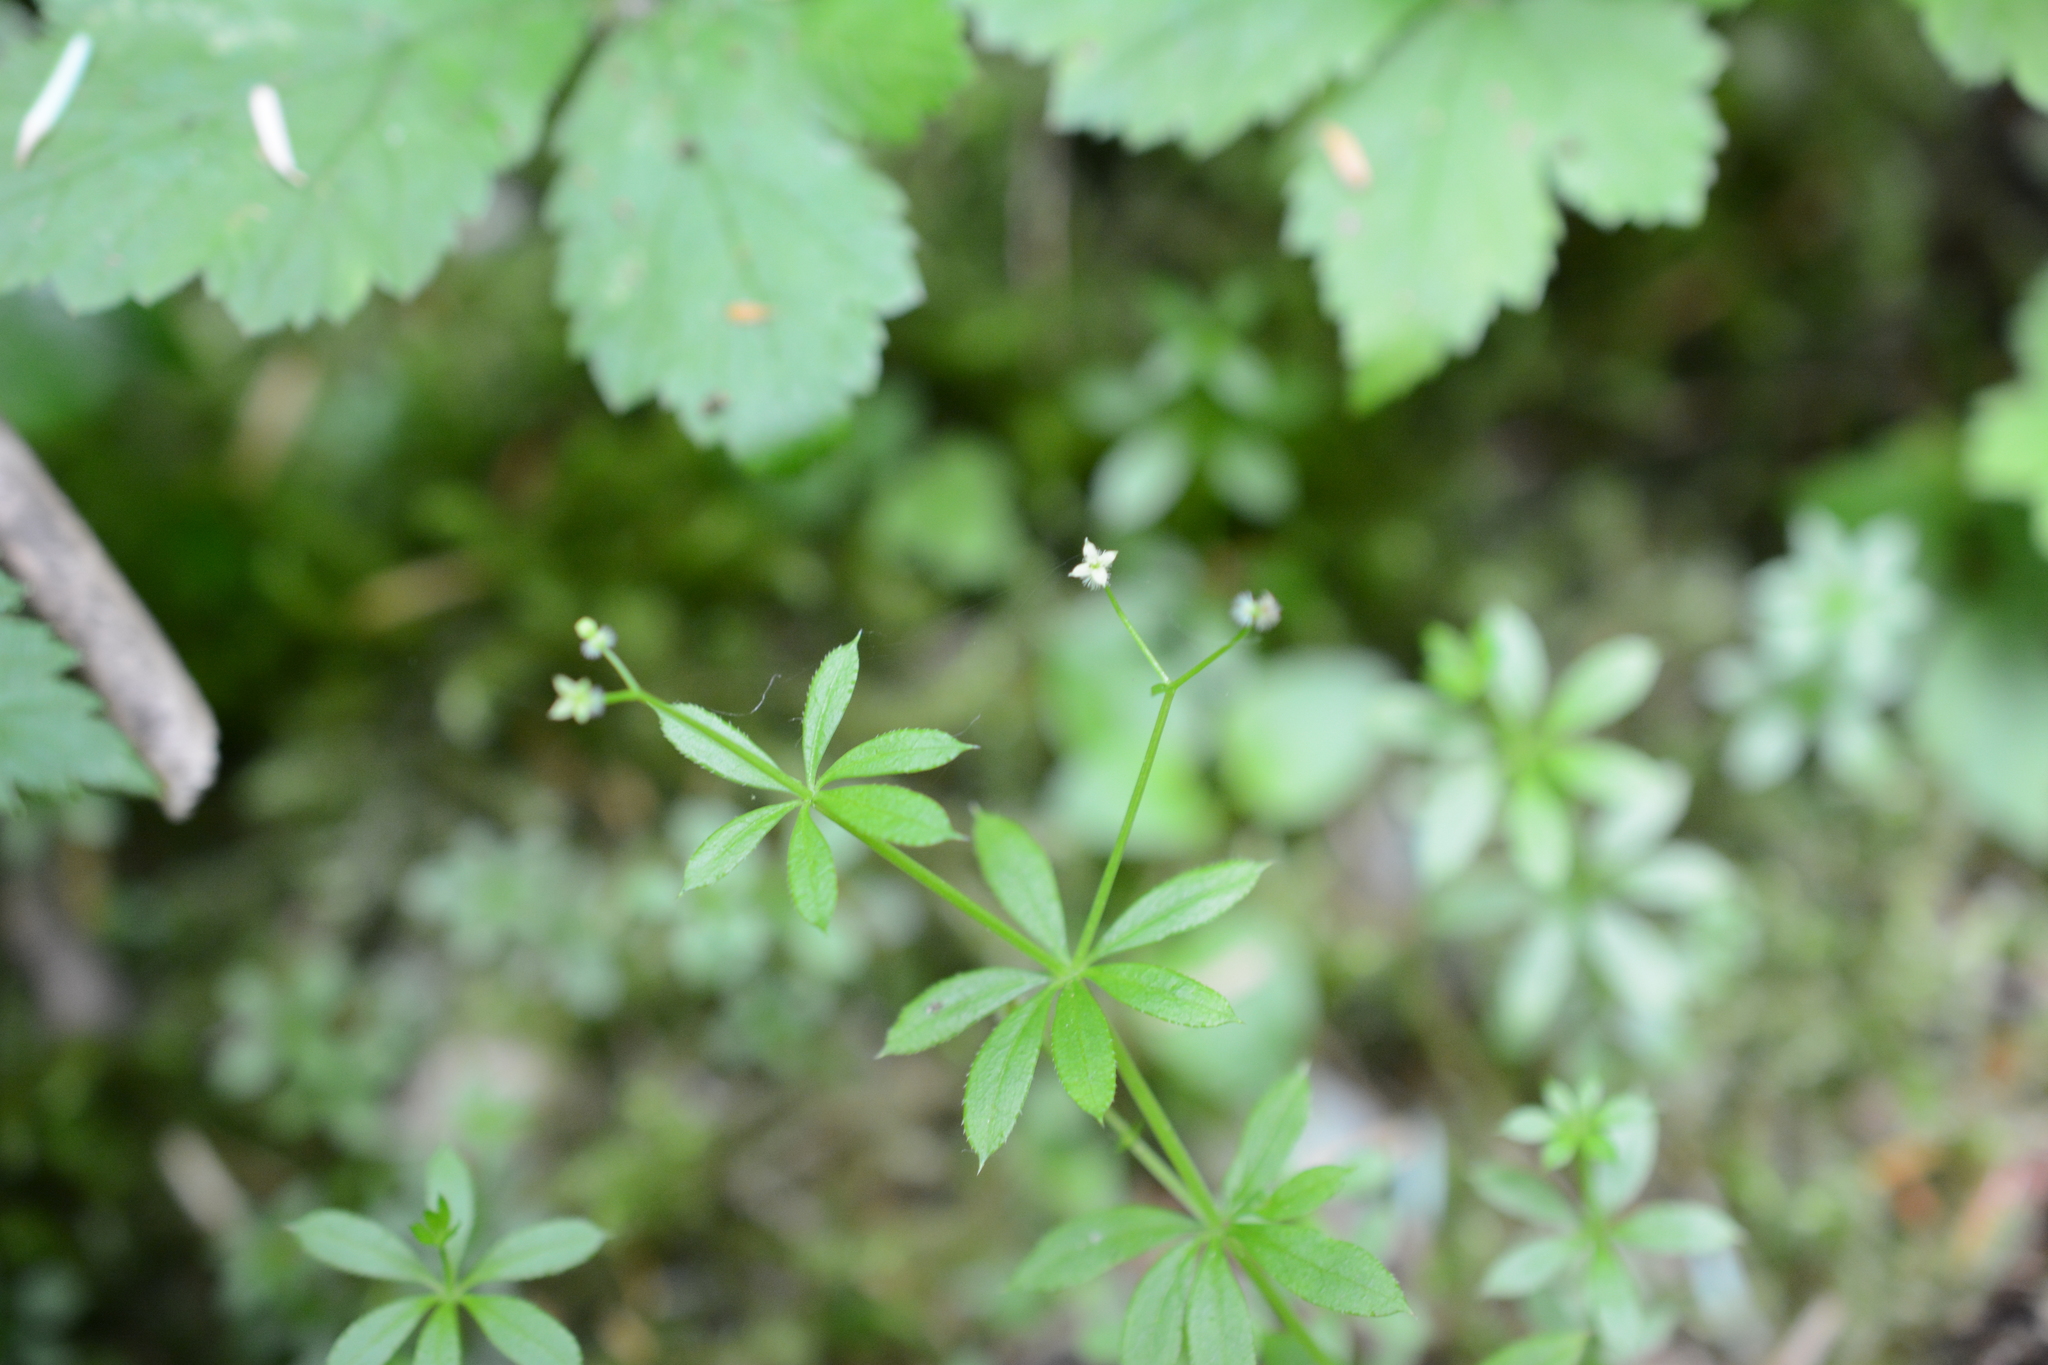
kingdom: Plantae
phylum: Tracheophyta
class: Magnoliopsida
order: Gentianales
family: Rubiaceae
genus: Galium
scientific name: Galium triflorum
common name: Fragrant bedstraw
